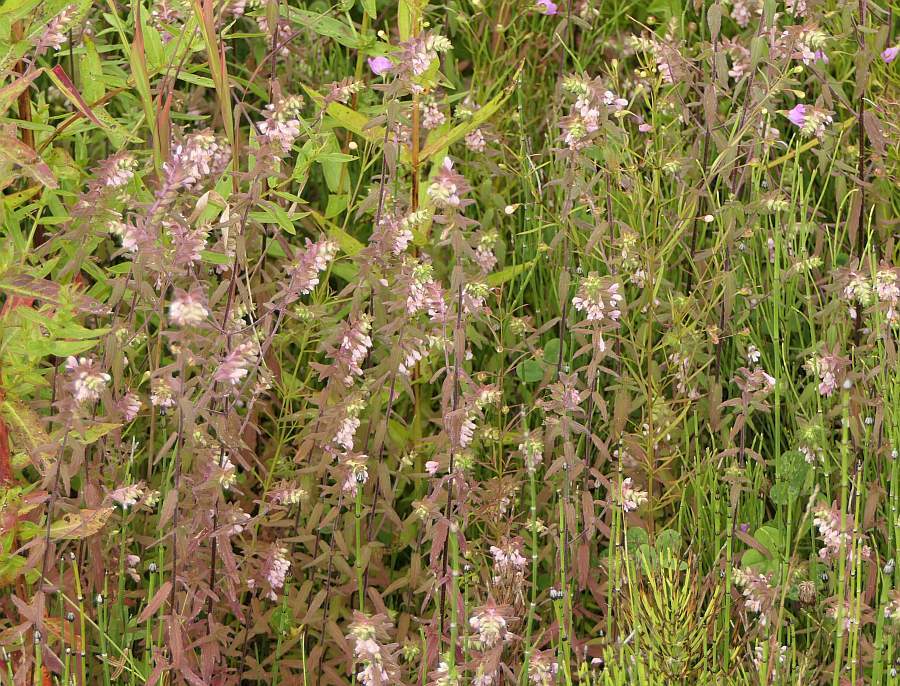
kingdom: Plantae
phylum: Tracheophyta
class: Magnoliopsida
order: Lamiales
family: Orobanchaceae
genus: Odontites
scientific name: Odontites vulgaris
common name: Broomrape
